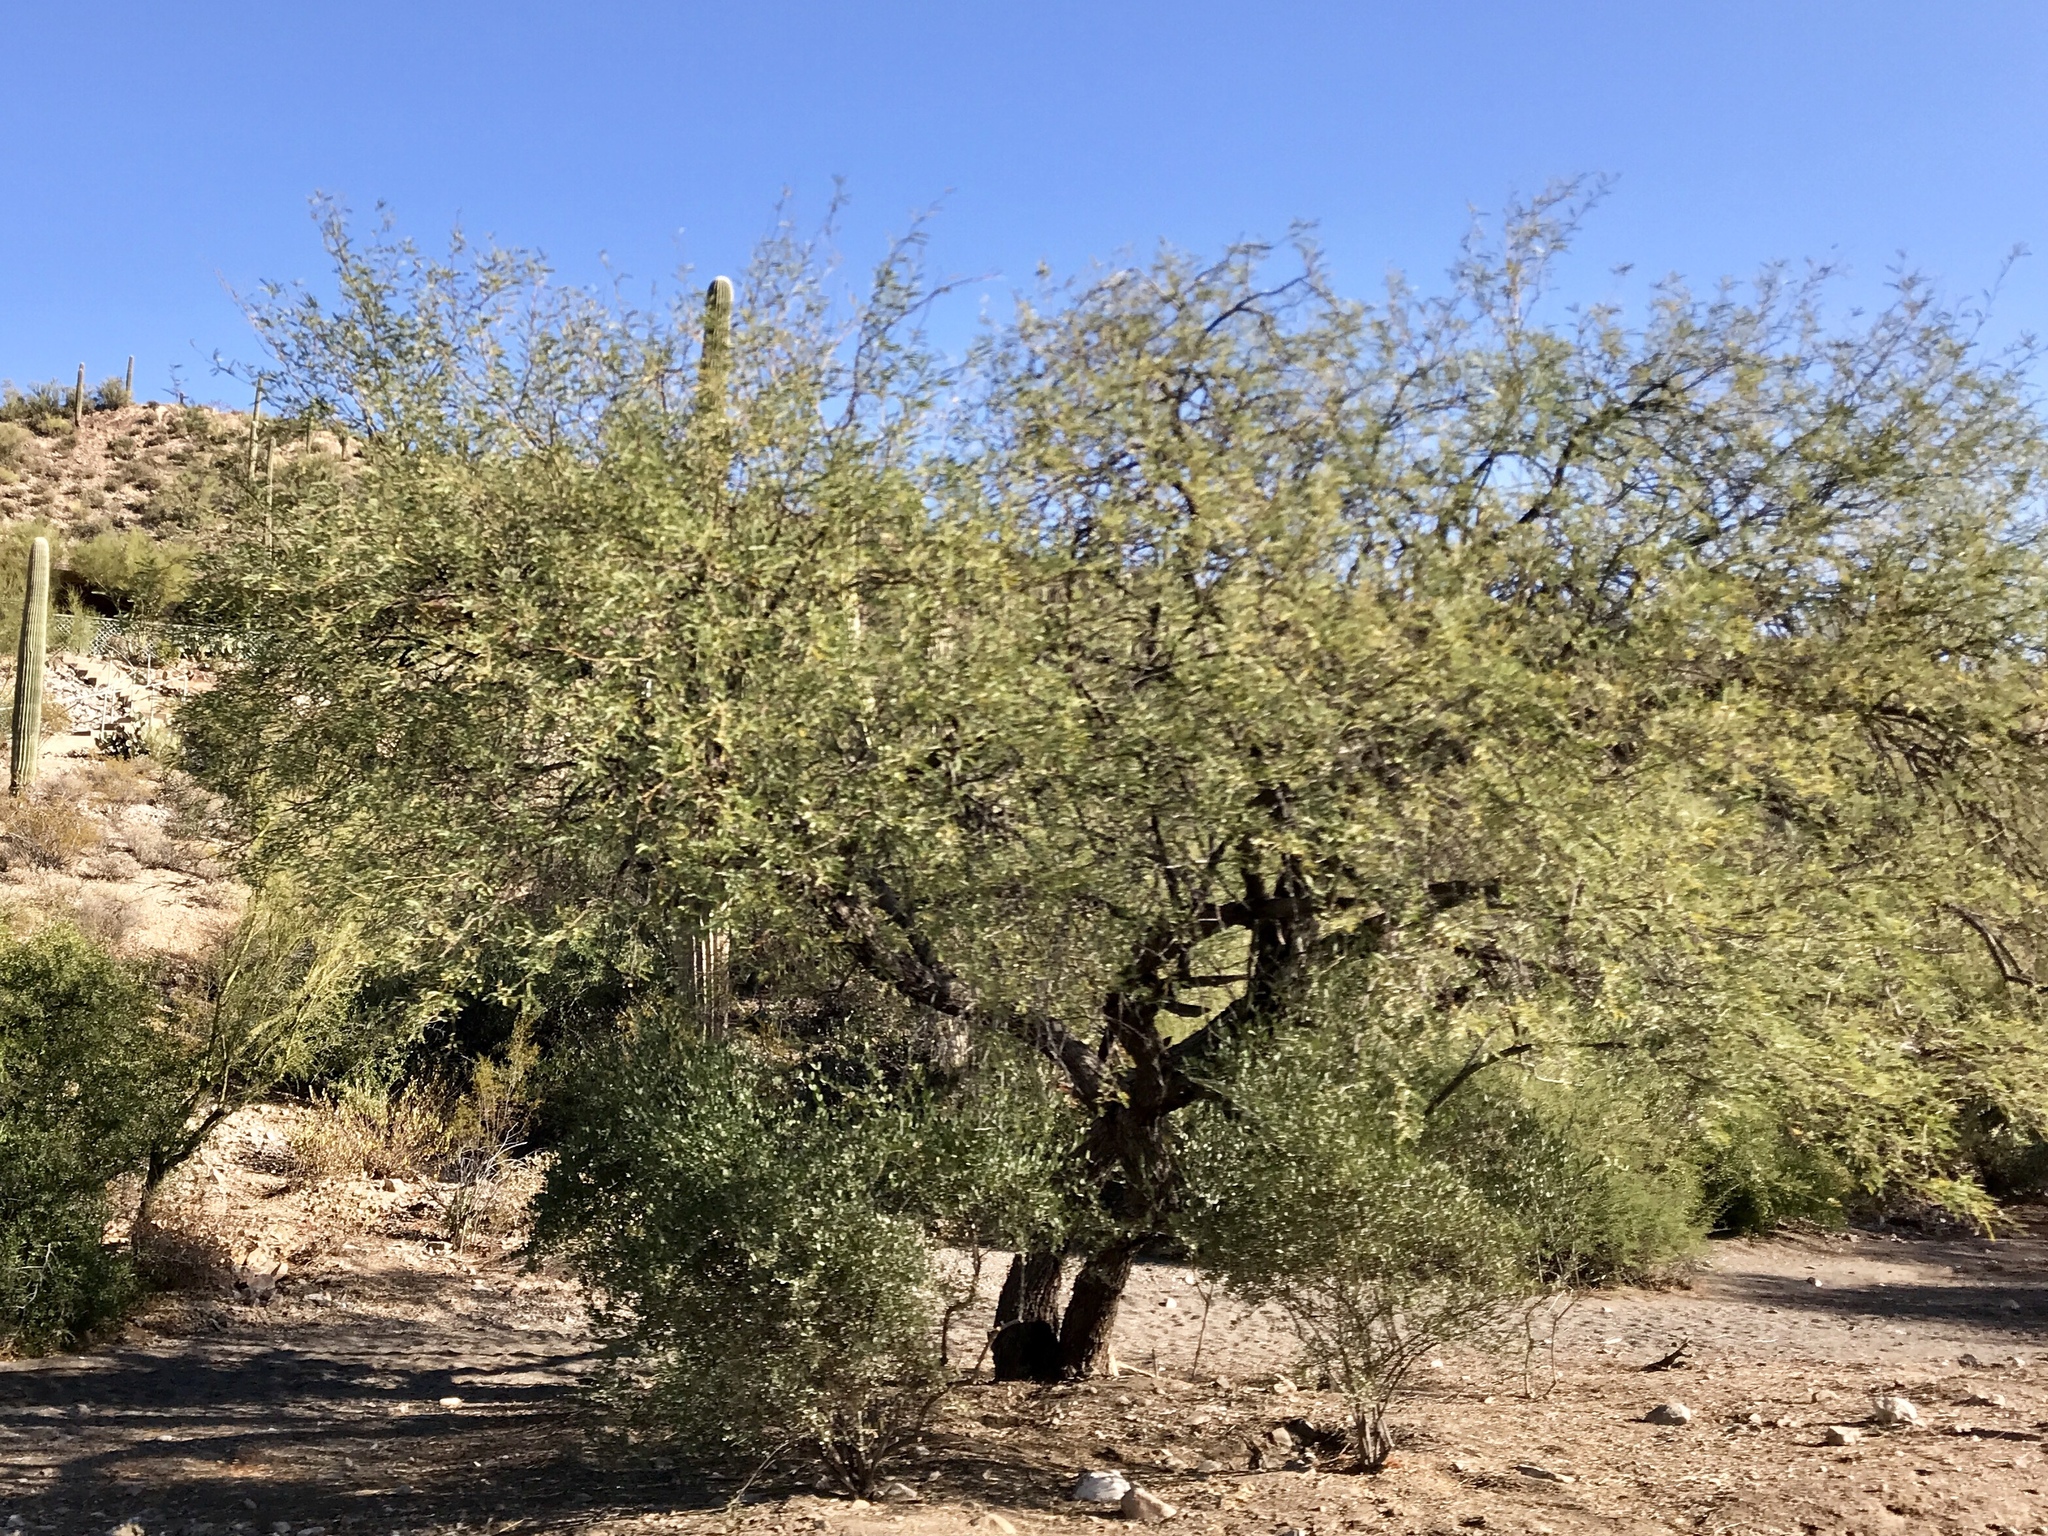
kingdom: Plantae
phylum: Tracheophyta
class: Magnoliopsida
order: Fabales
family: Fabaceae
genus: Prosopis
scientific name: Prosopis velutina
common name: Velvet mesquite
